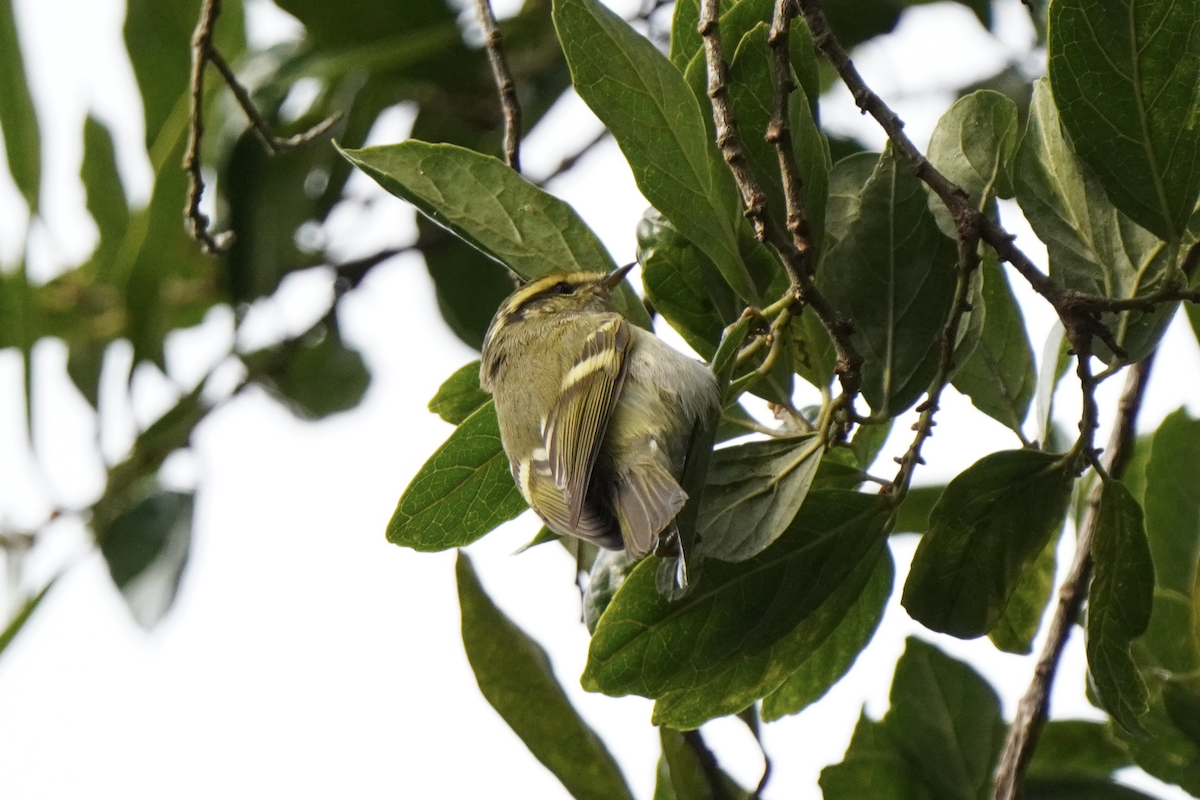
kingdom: Animalia
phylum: Chordata
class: Aves
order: Passeriformes
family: Phylloscopidae
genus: Phylloscopus
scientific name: Phylloscopus proregulus
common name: Pallas's leaf warbler
